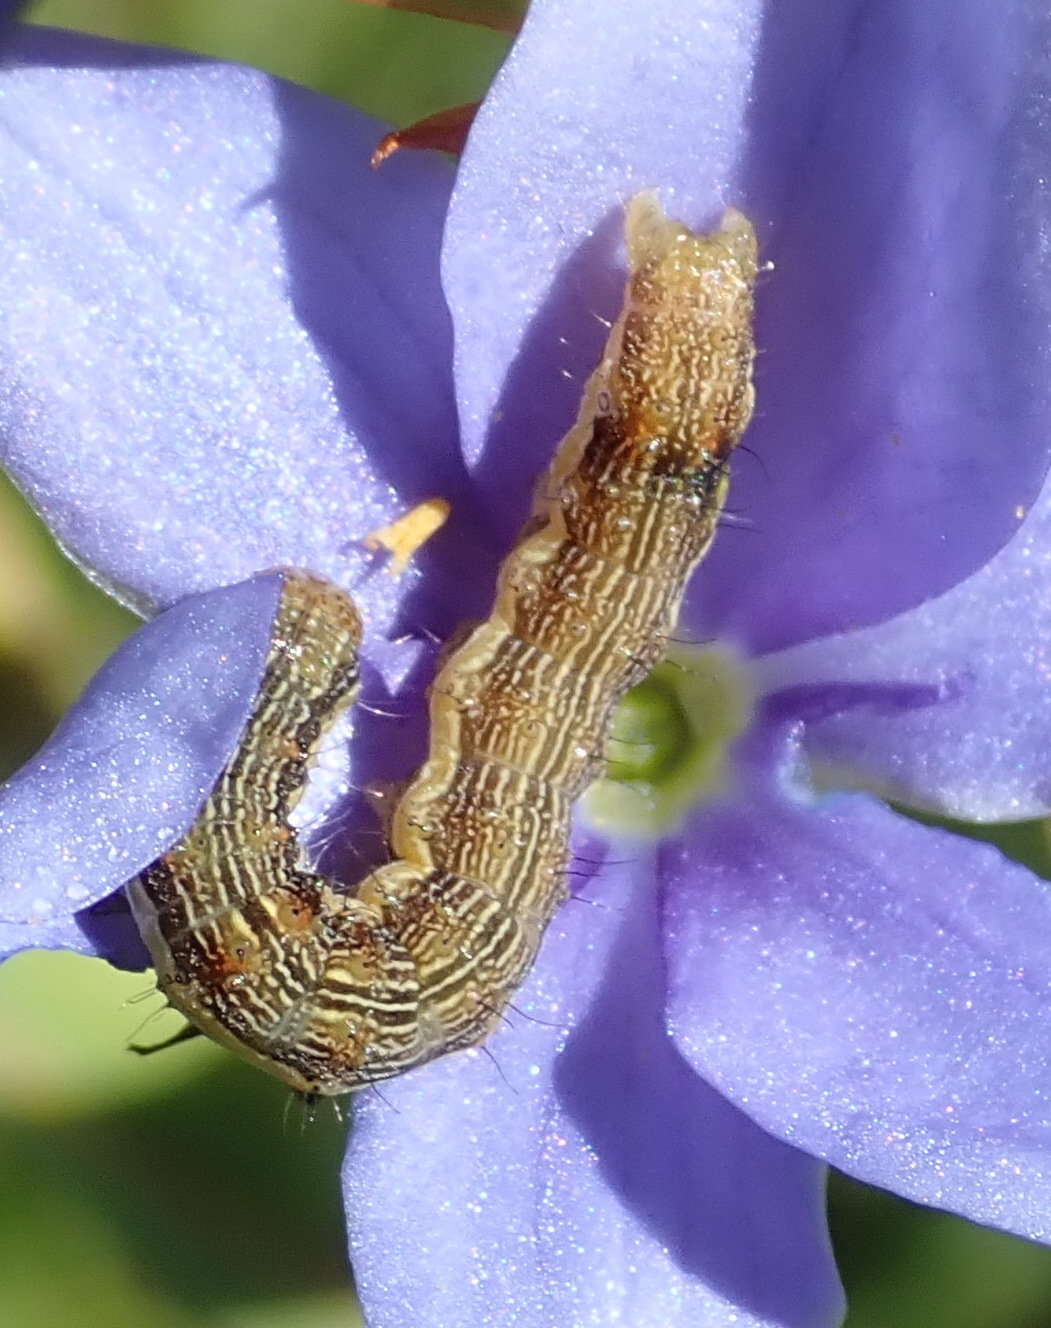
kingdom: Animalia
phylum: Arthropoda
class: Insecta
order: Lepidoptera
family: Noctuidae
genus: Helicoverpa
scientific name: Helicoverpa armigera
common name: Cotton bollworm
